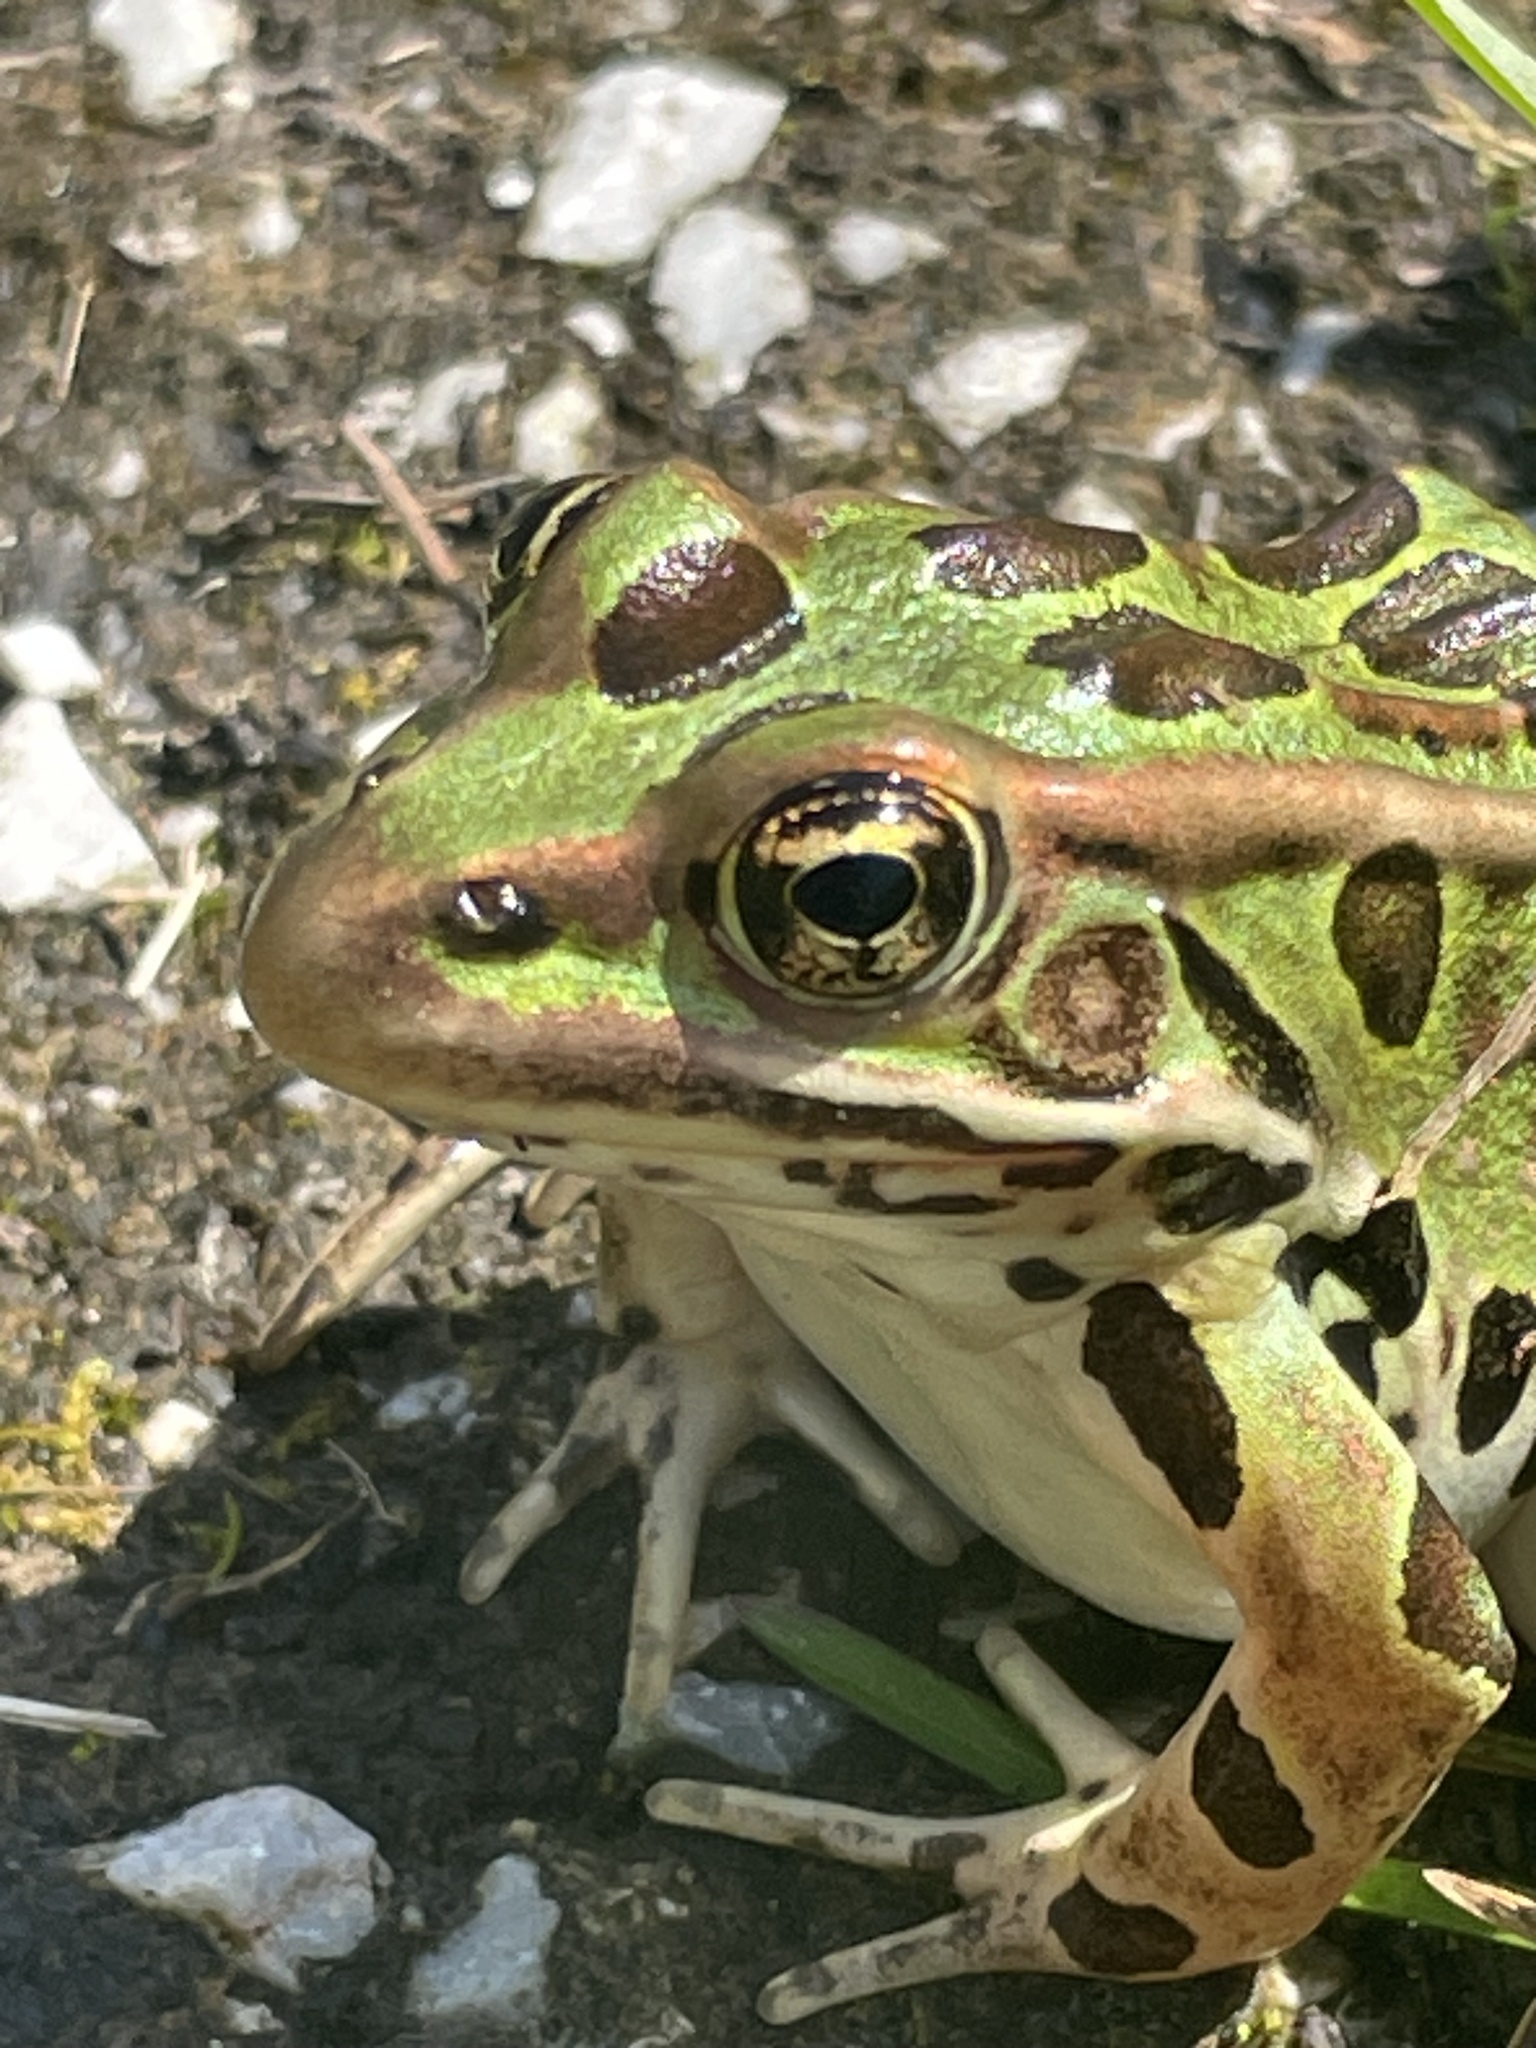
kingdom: Animalia
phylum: Chordata
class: Amphibia
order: Anura
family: Ranidae
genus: Lithobates
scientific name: Lithobates pipiens
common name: Northern leopard frog
